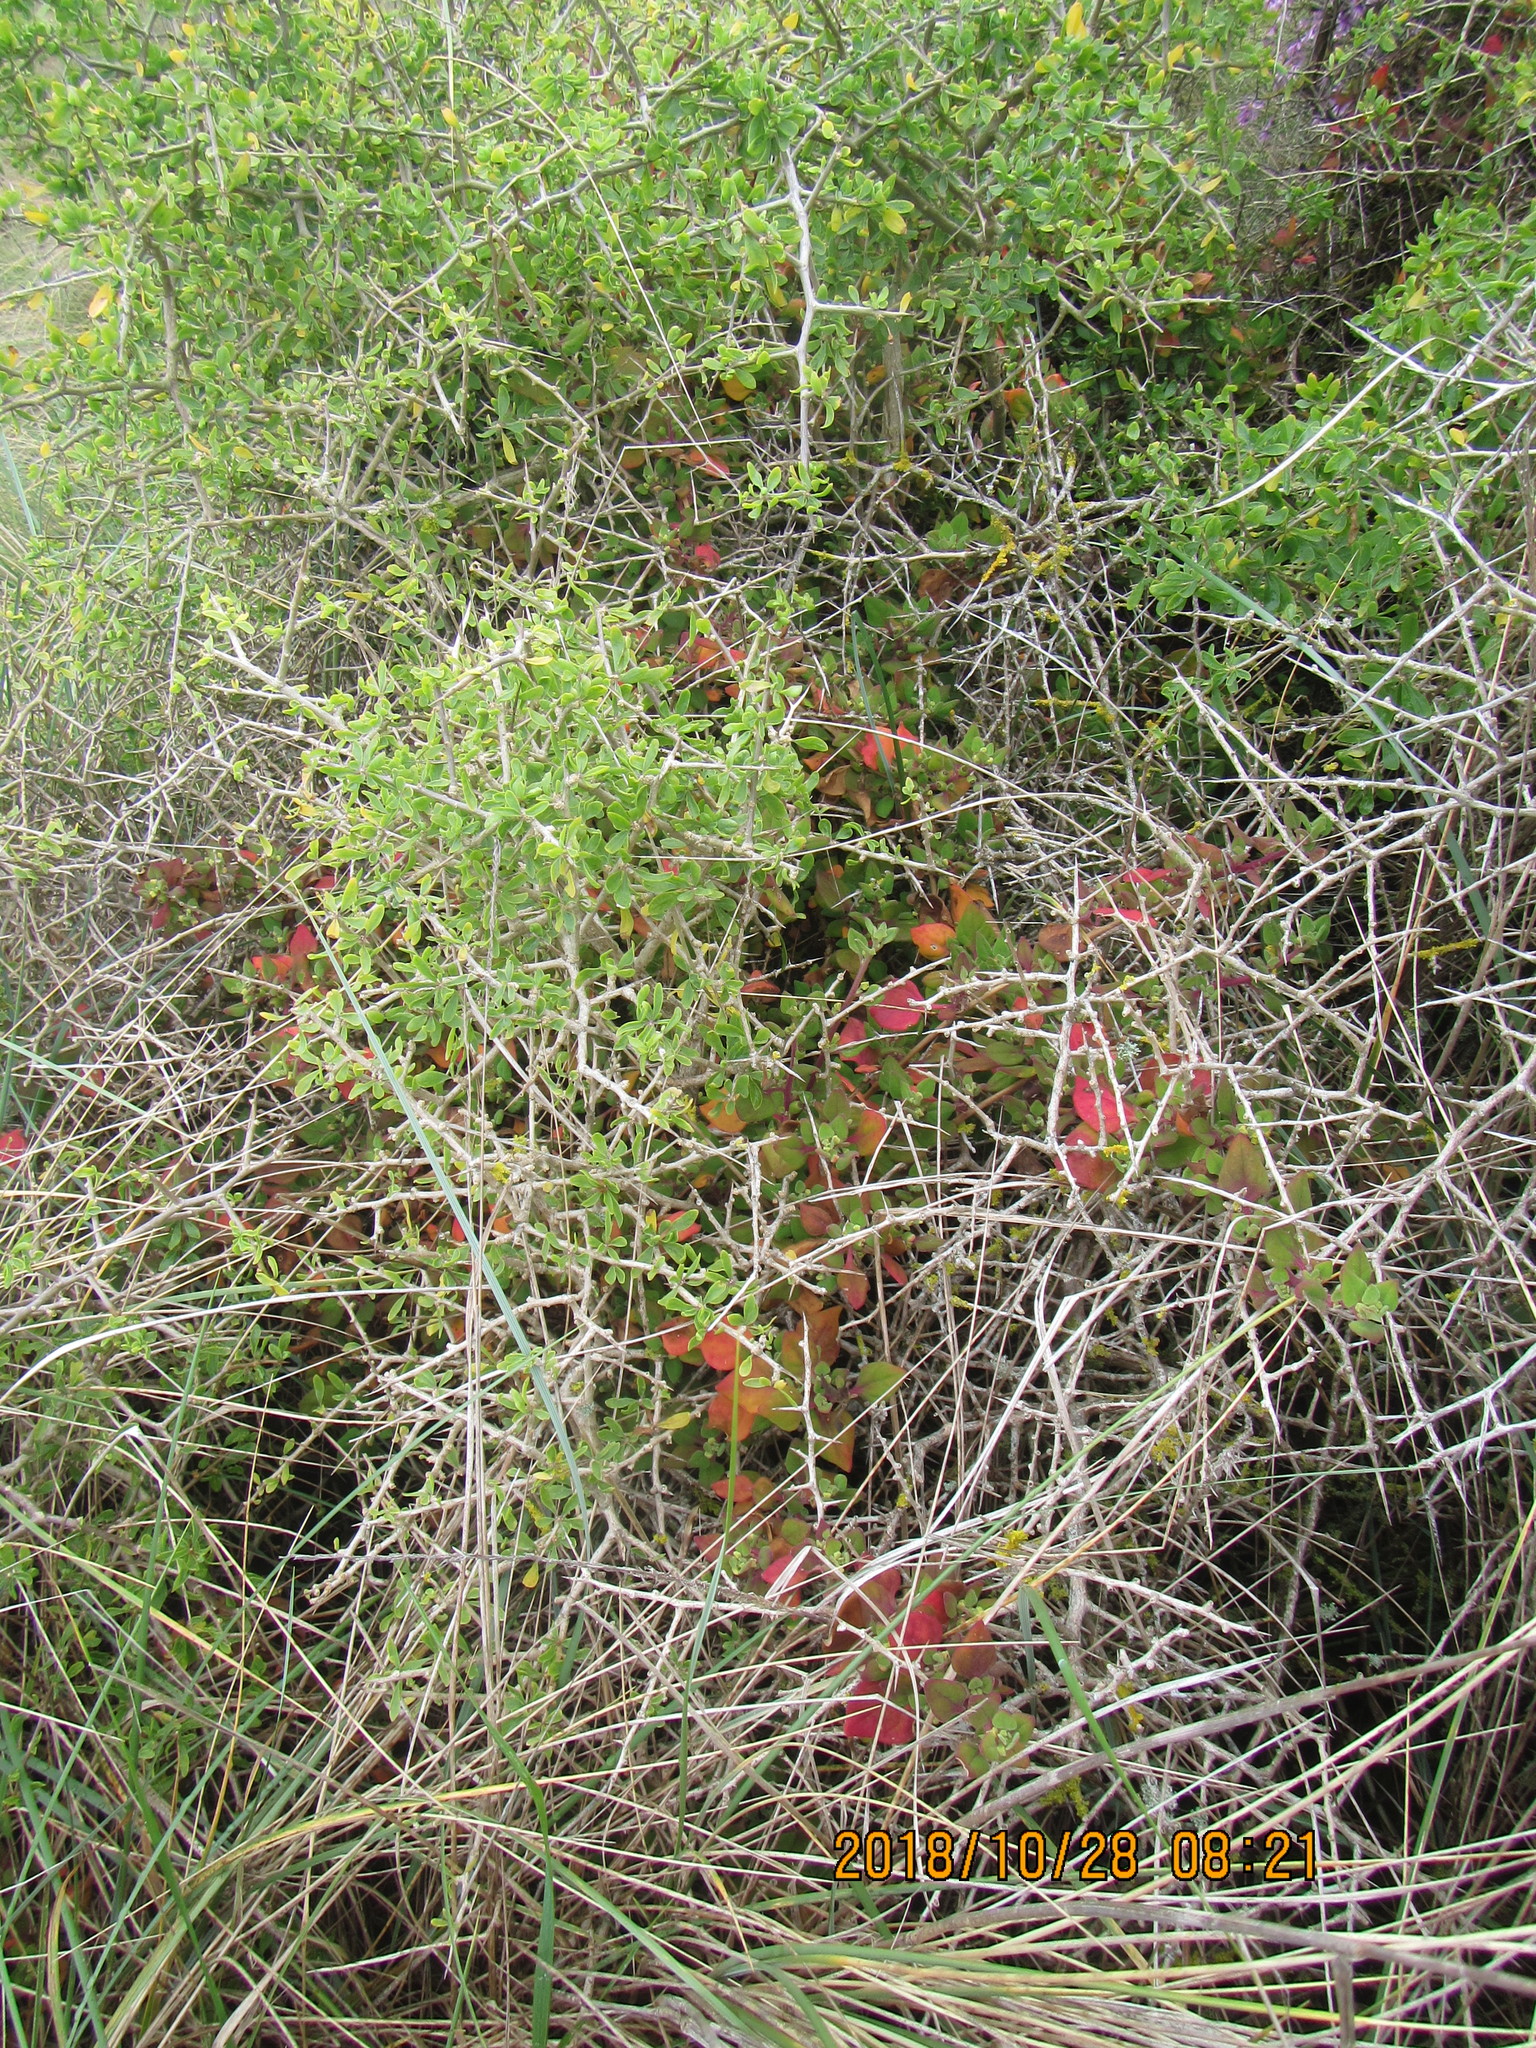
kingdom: Plantae
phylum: Tracheophyta
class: Magnoliopsida
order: Solanales
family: Solanaceae
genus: Lycium
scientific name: Lycium ferocissimum
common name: African boxthorn
